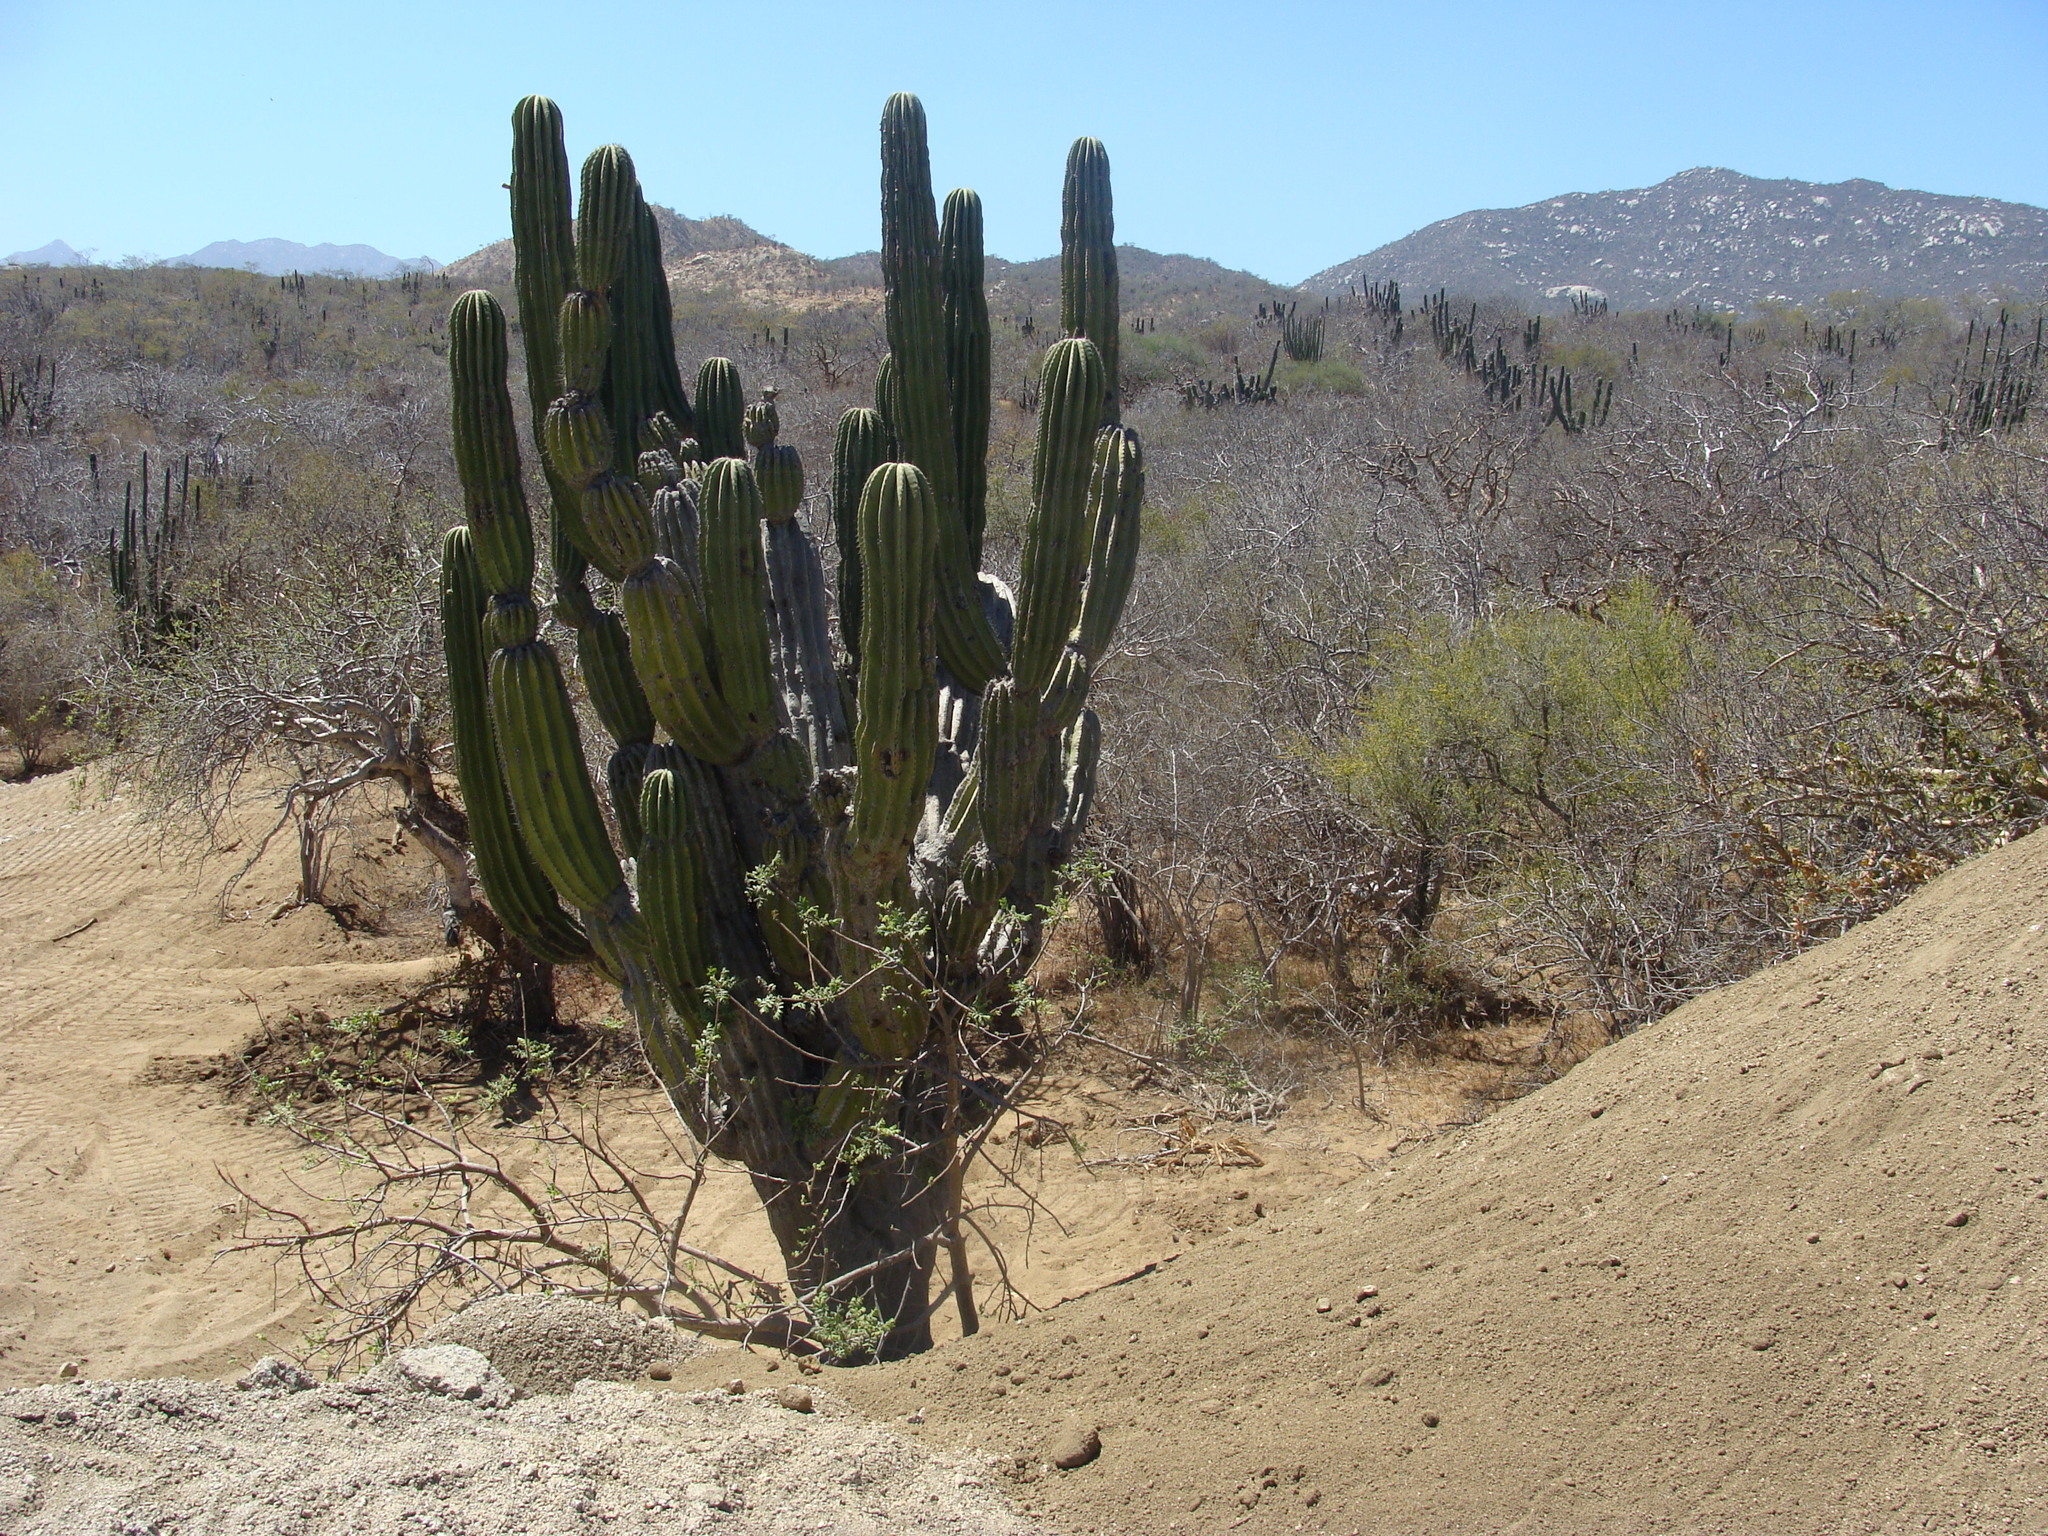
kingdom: Plantae
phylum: Tracheophyta
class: Magnoliopsida
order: Caryophyllales
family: Cactaceae
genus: Pachycereus
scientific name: Pachycereus pringlei
